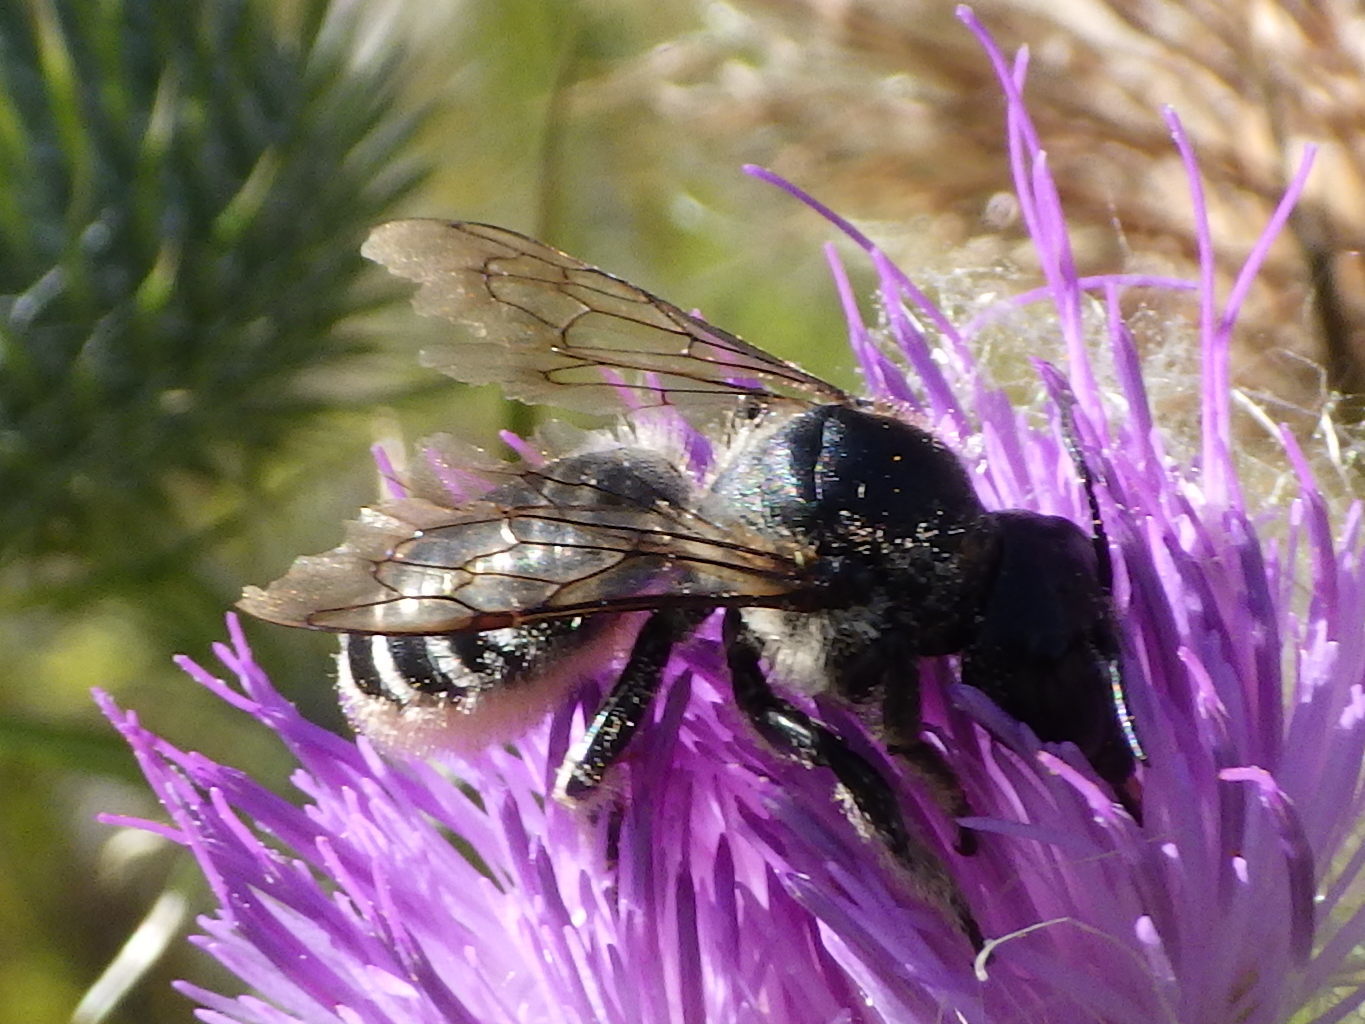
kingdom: Animalia
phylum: Arthropoda
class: Insecta
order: Hymenoptera
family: Megachilidae
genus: Megachile
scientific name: Megachile inermis
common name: Unarmed leafcutter bee
